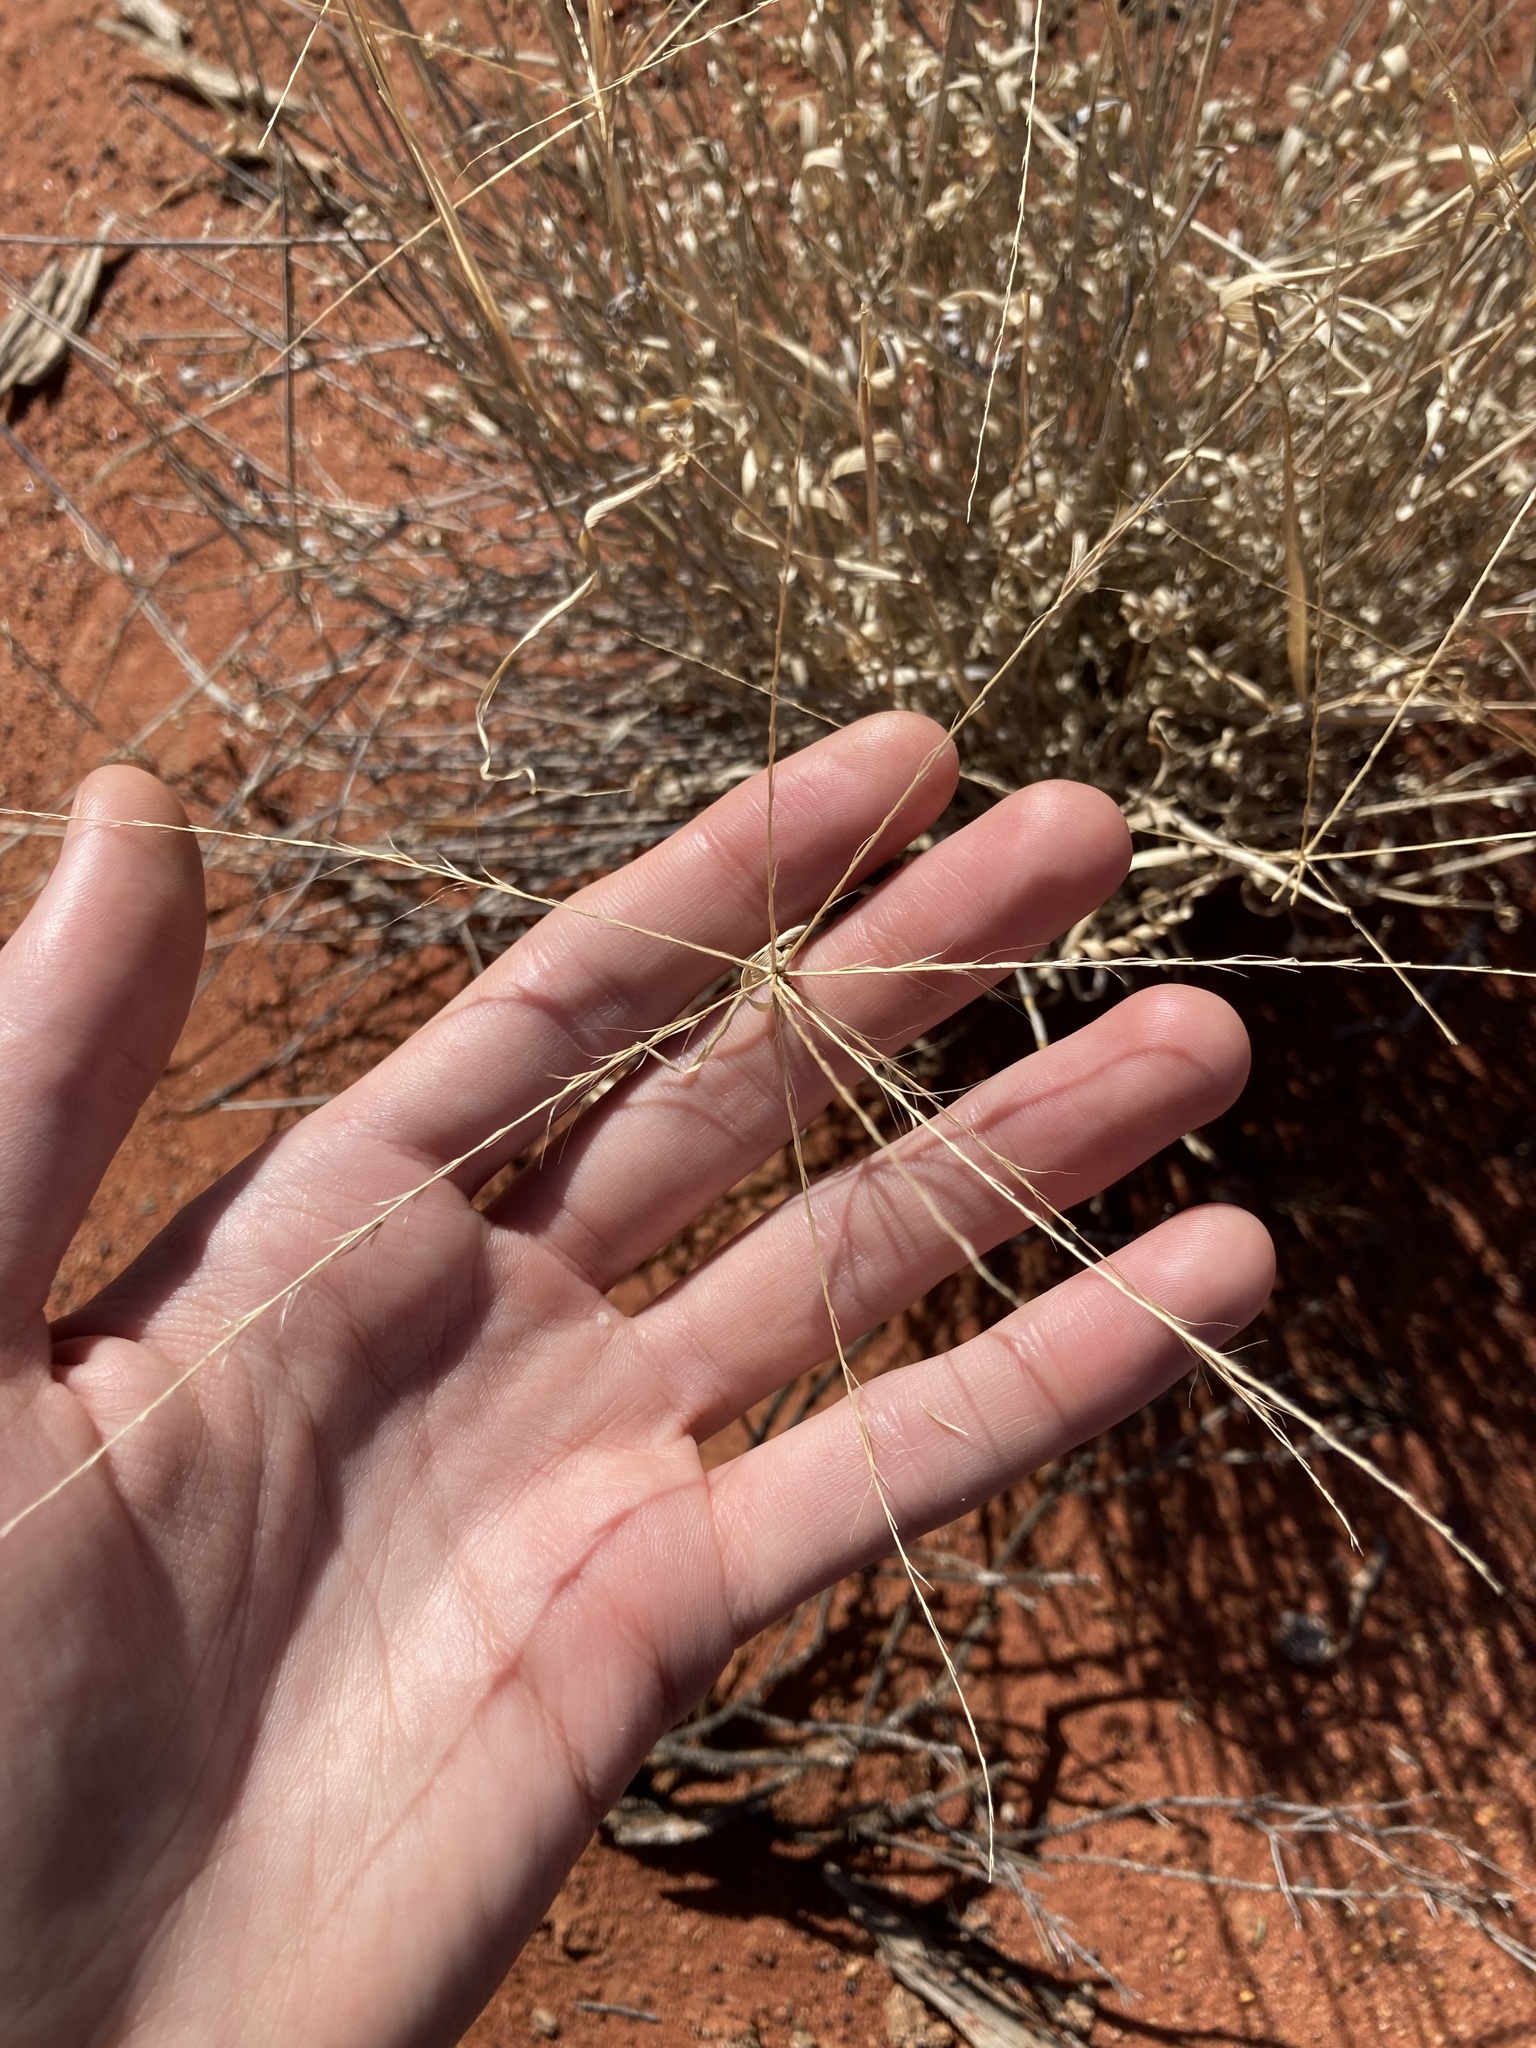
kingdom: Plantae
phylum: Tracheophyta
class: Liliopsida
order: Poales
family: Poaceae
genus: Enteropogon
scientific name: Enteropogon ramosus
